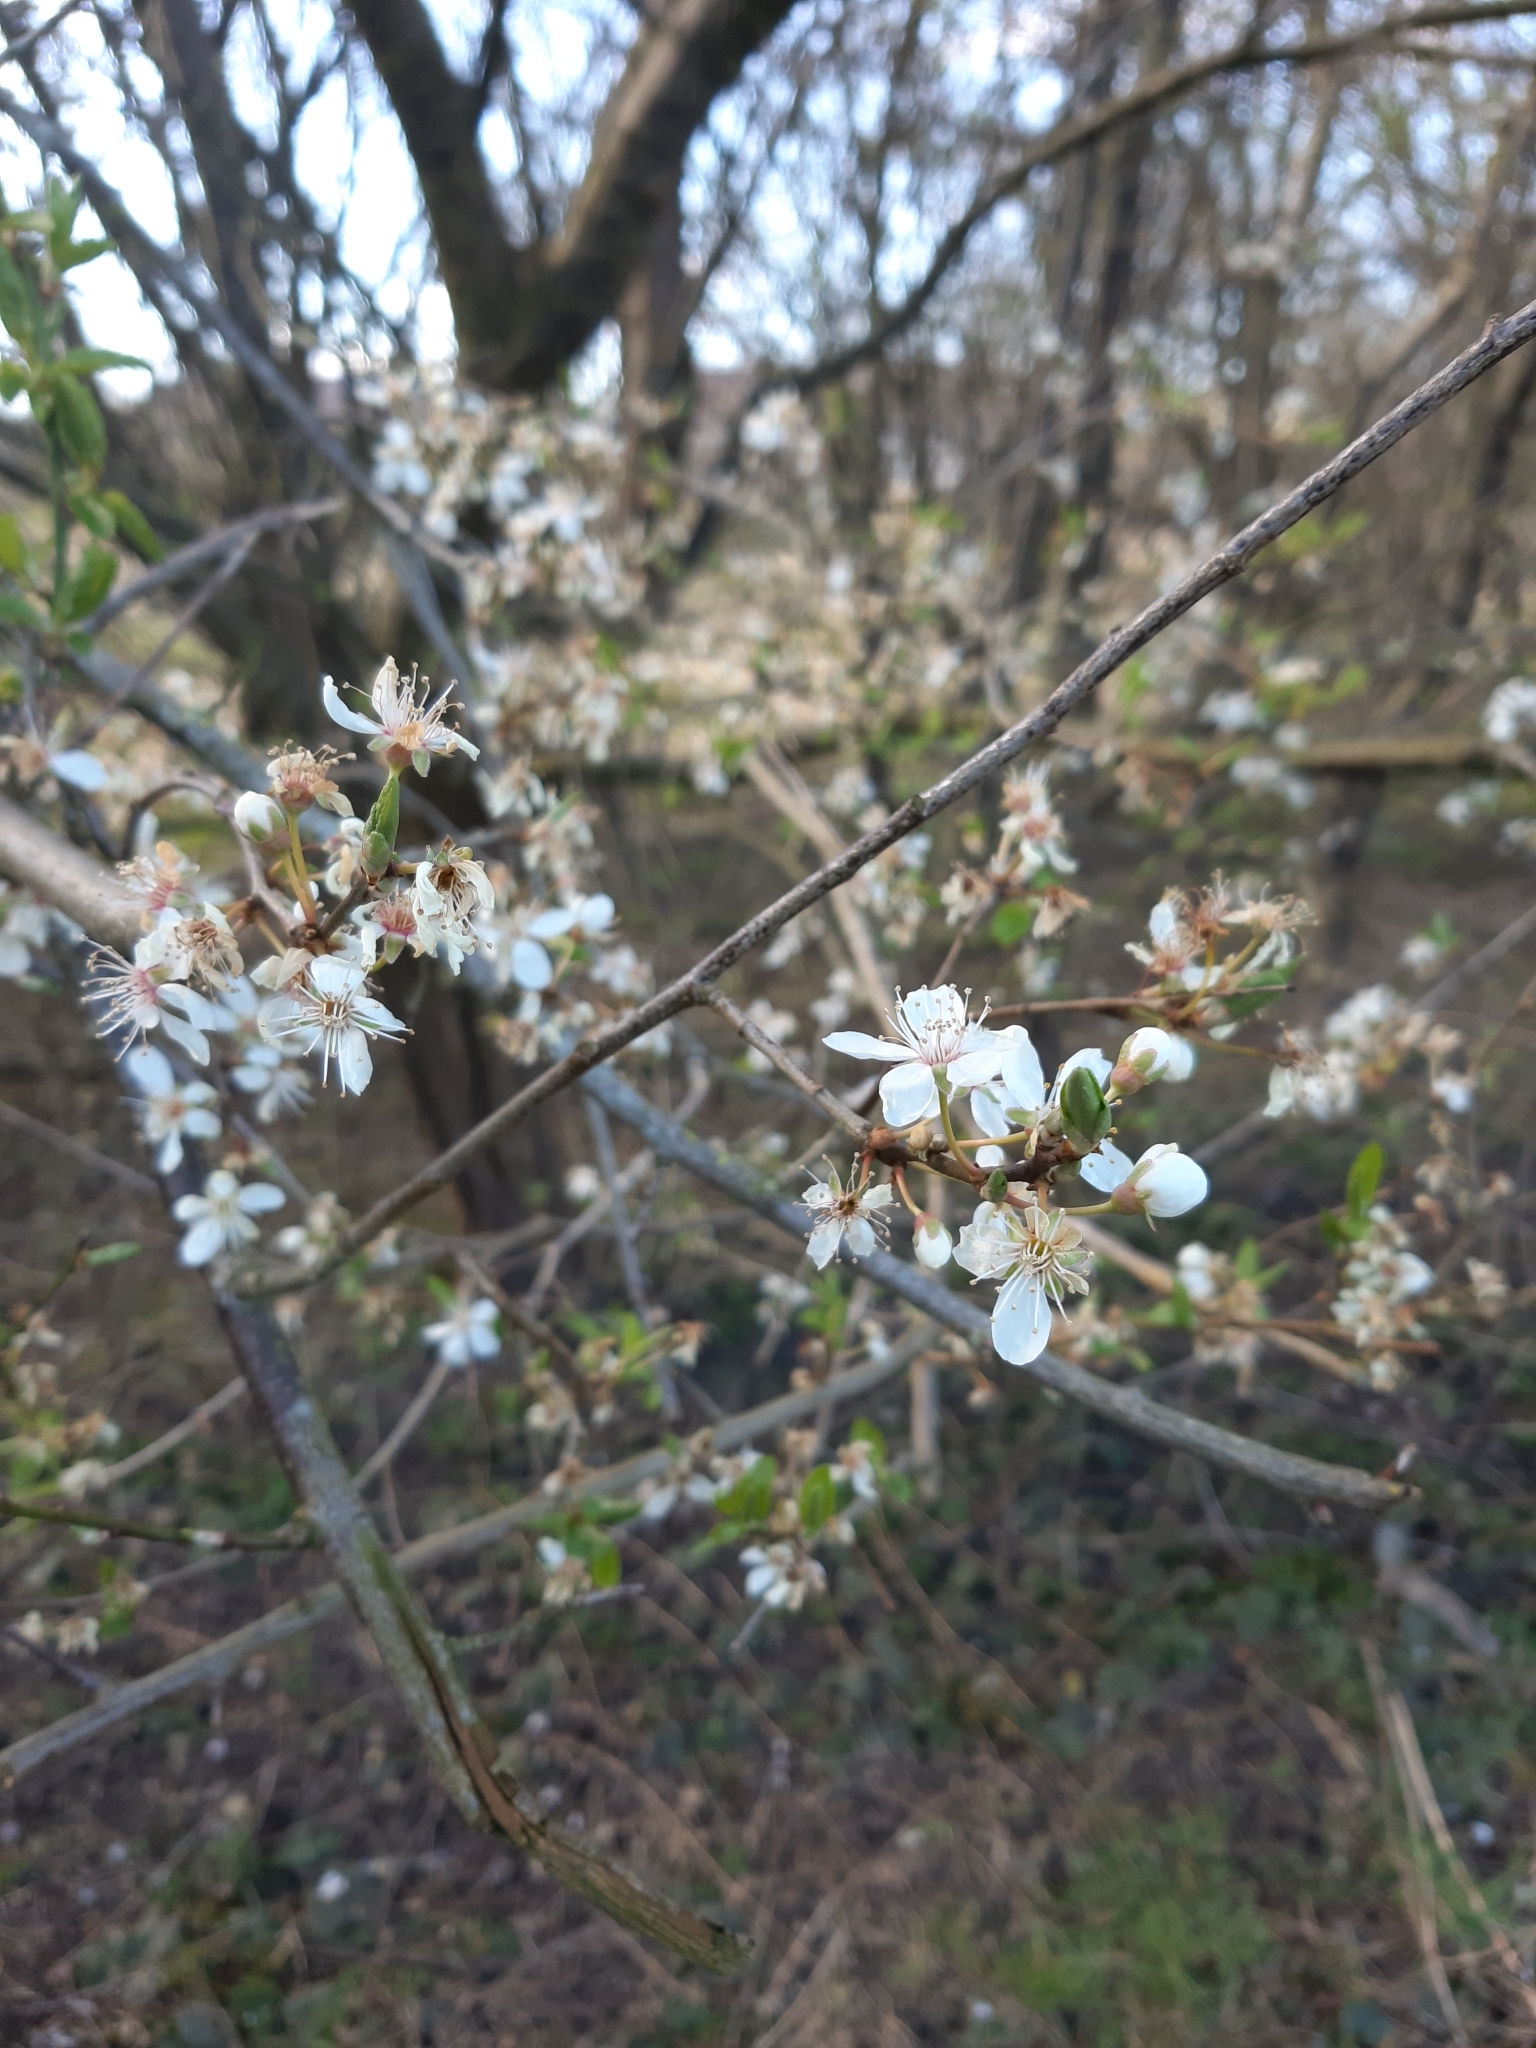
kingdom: Plantae
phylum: Tracheophyta
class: Magnoliopsida
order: Rosales
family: Rosaceae
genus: Prunus
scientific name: Prunus cerasifera
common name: Cherry plum
